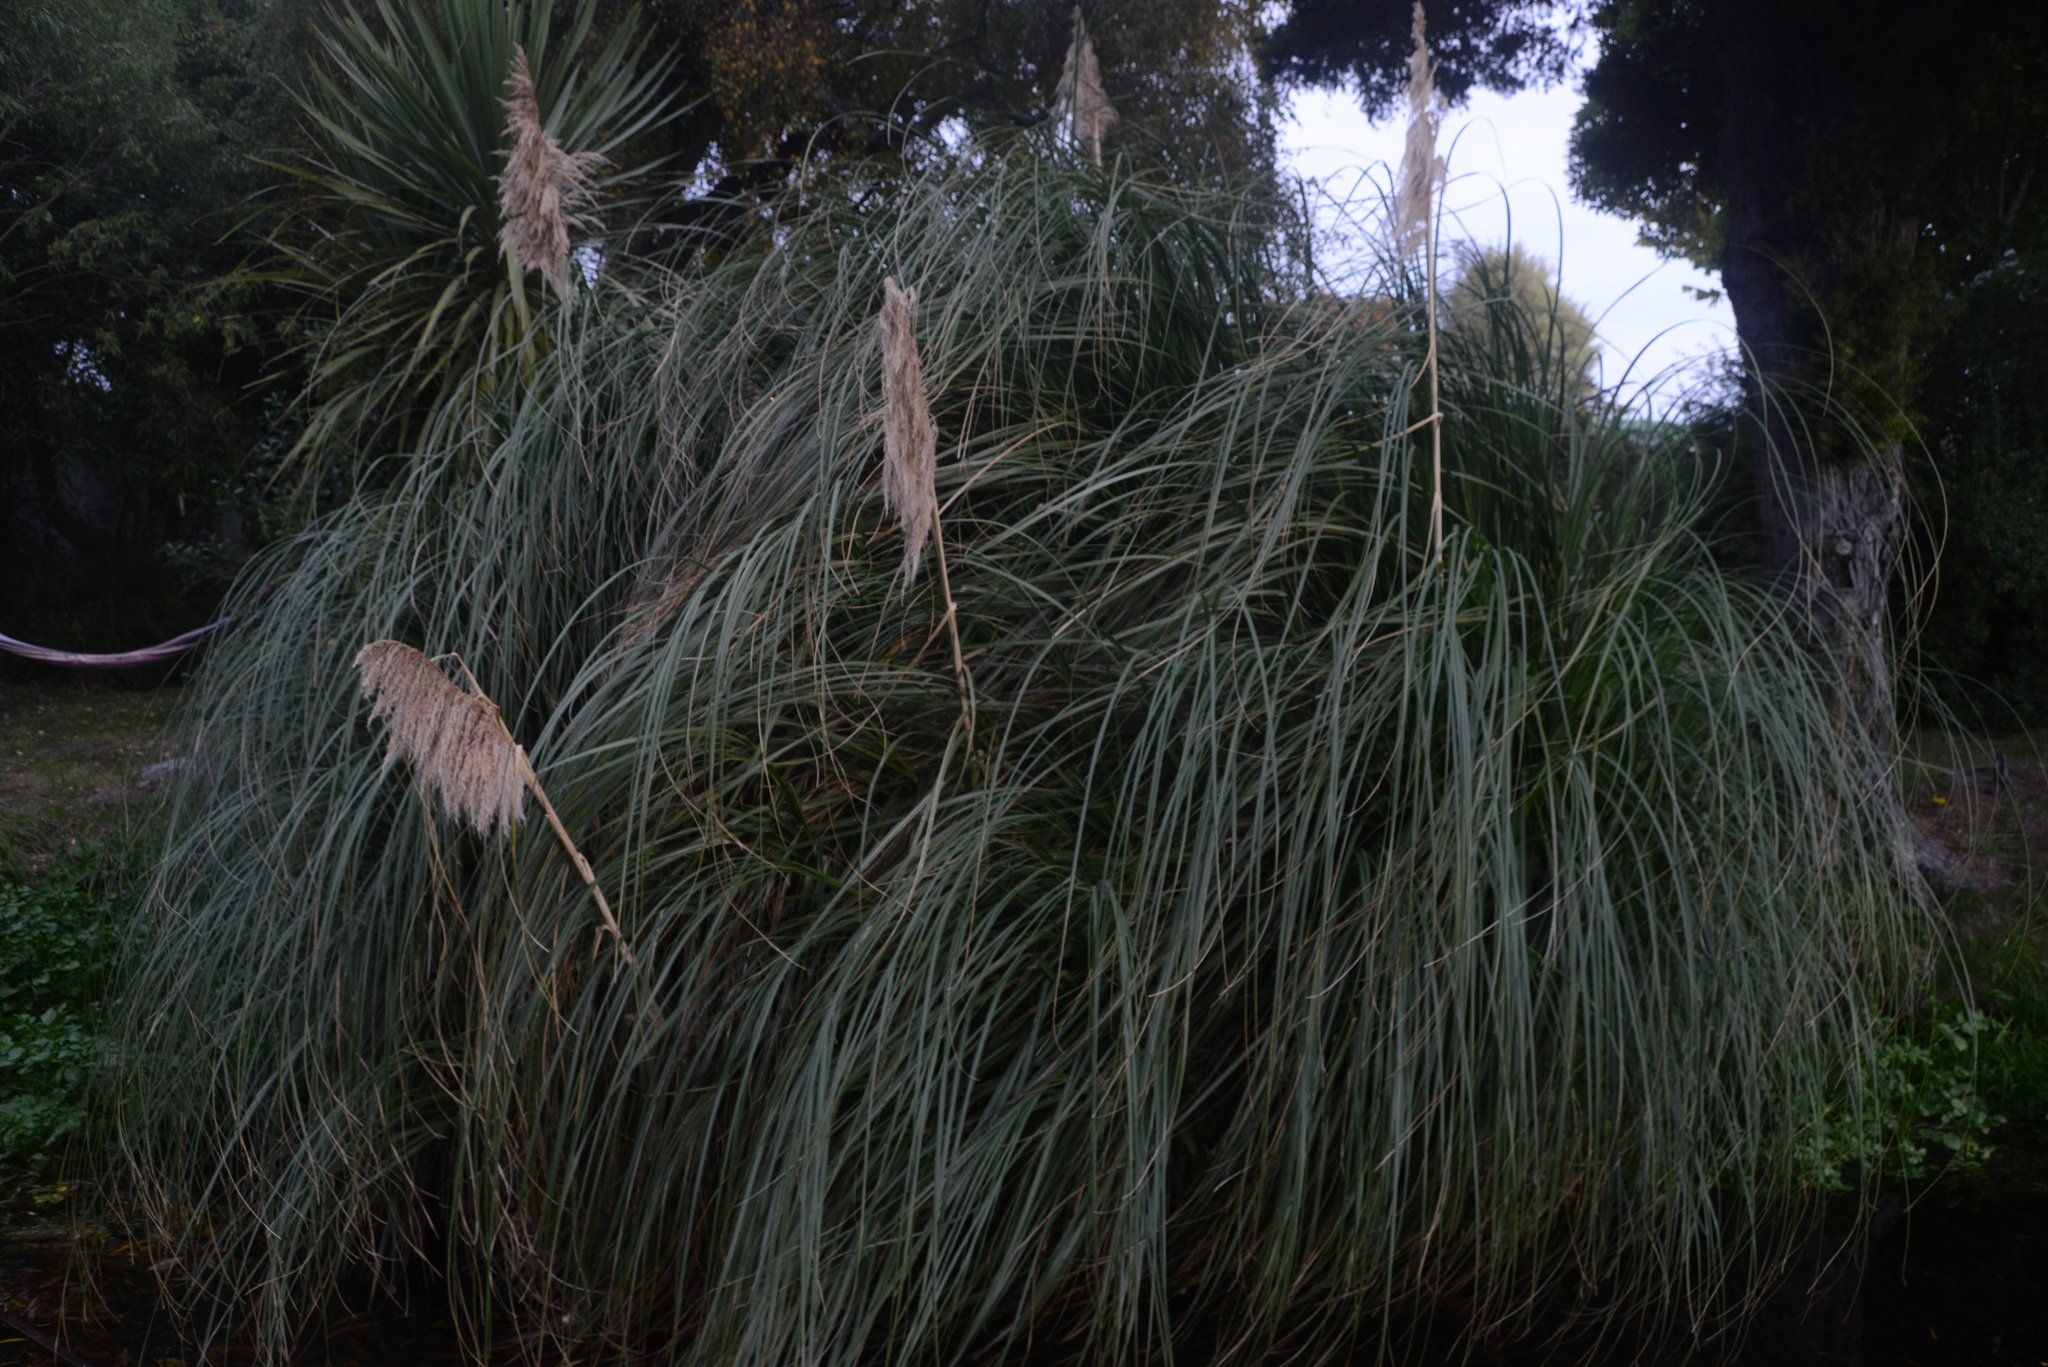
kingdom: Plantae
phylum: Tracheophyta
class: Liliopsida
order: Poales
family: Poaceae
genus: Cortaderia
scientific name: Cortaderia selloana
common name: Uruguayan pampas grass
